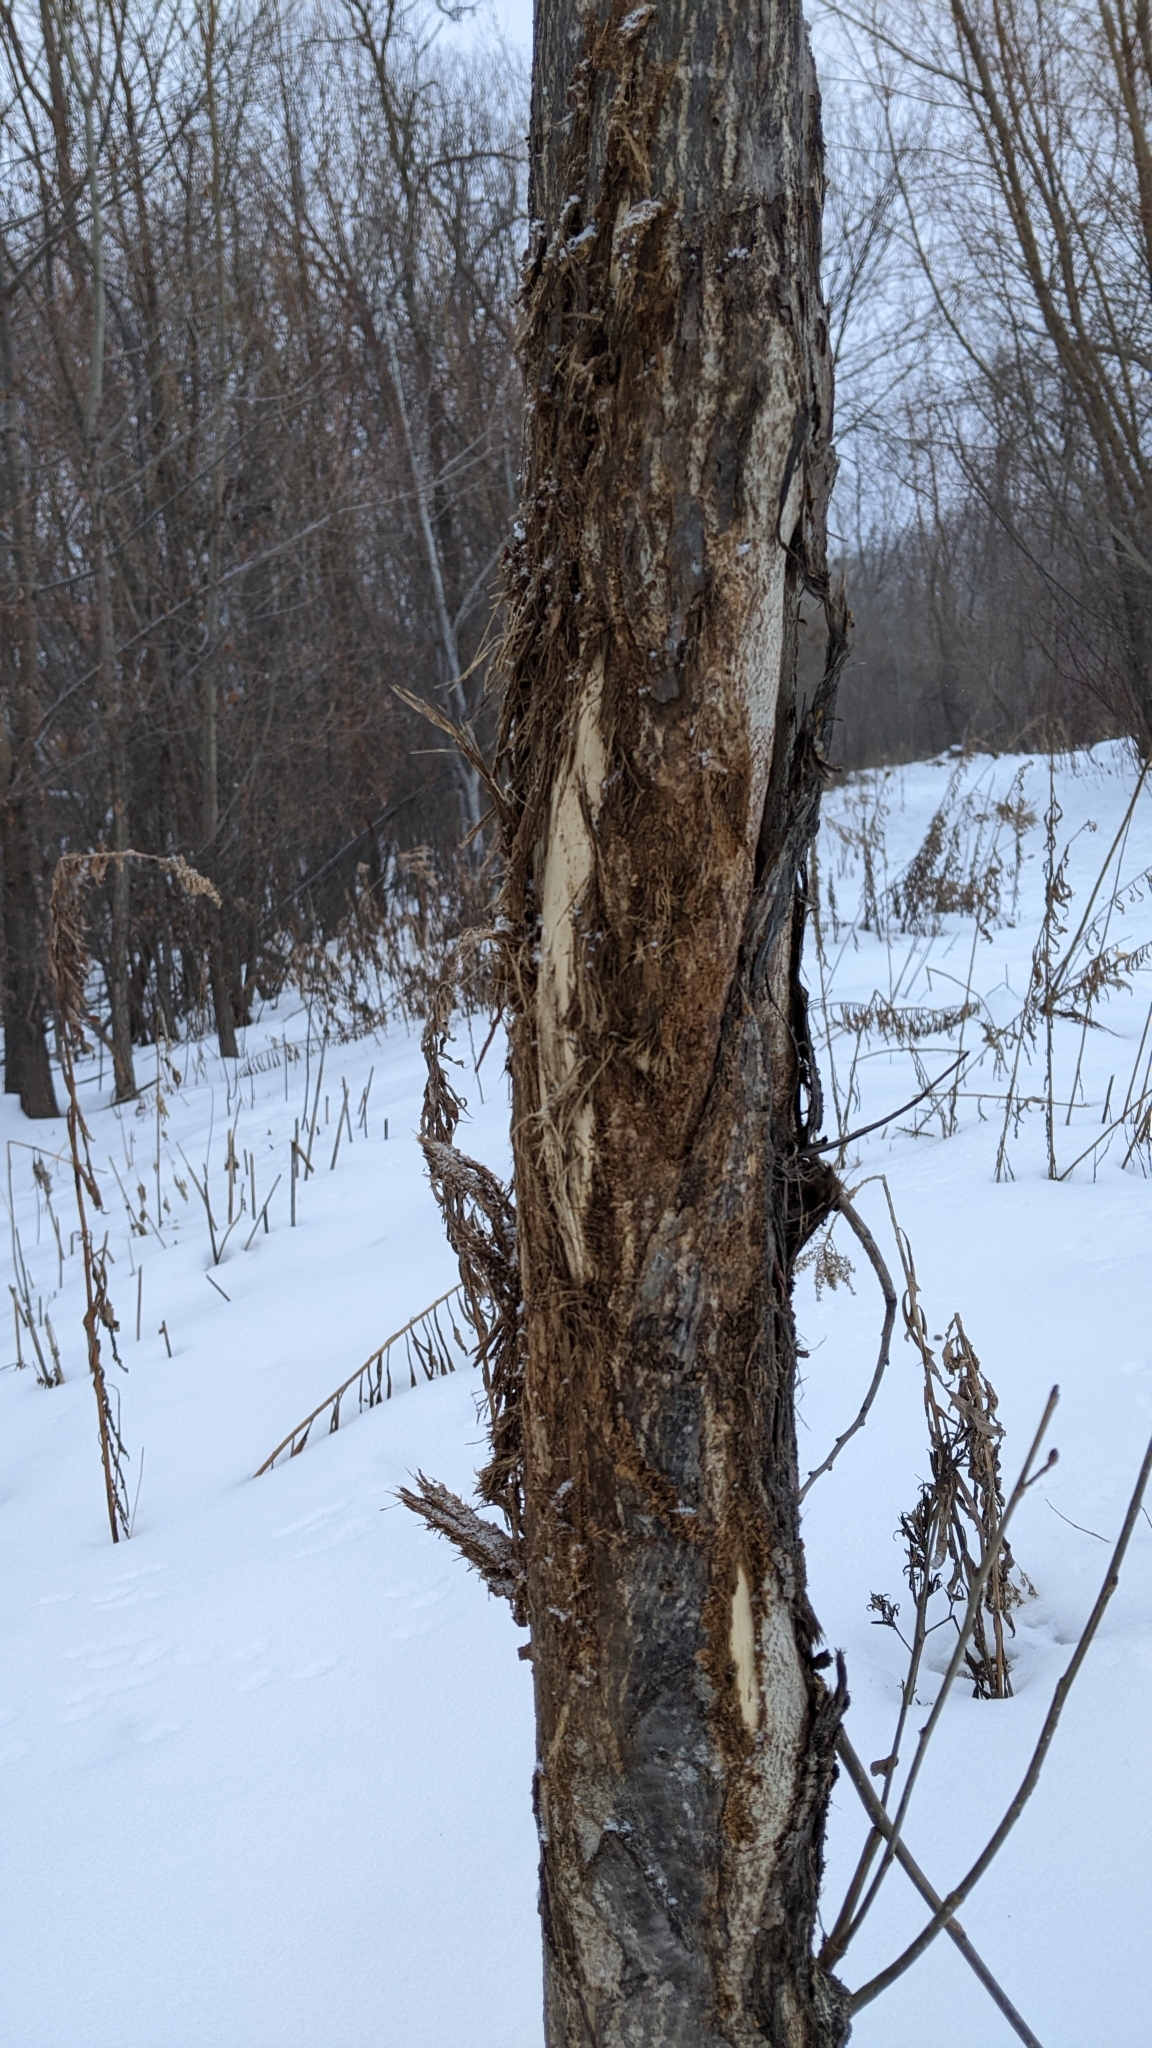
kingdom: Animalia
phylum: Chordata
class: Mammalia
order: Artiodactyla
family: Cervidae
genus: Odocoileus
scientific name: Odocoileus virginianus
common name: White-tailed deer
